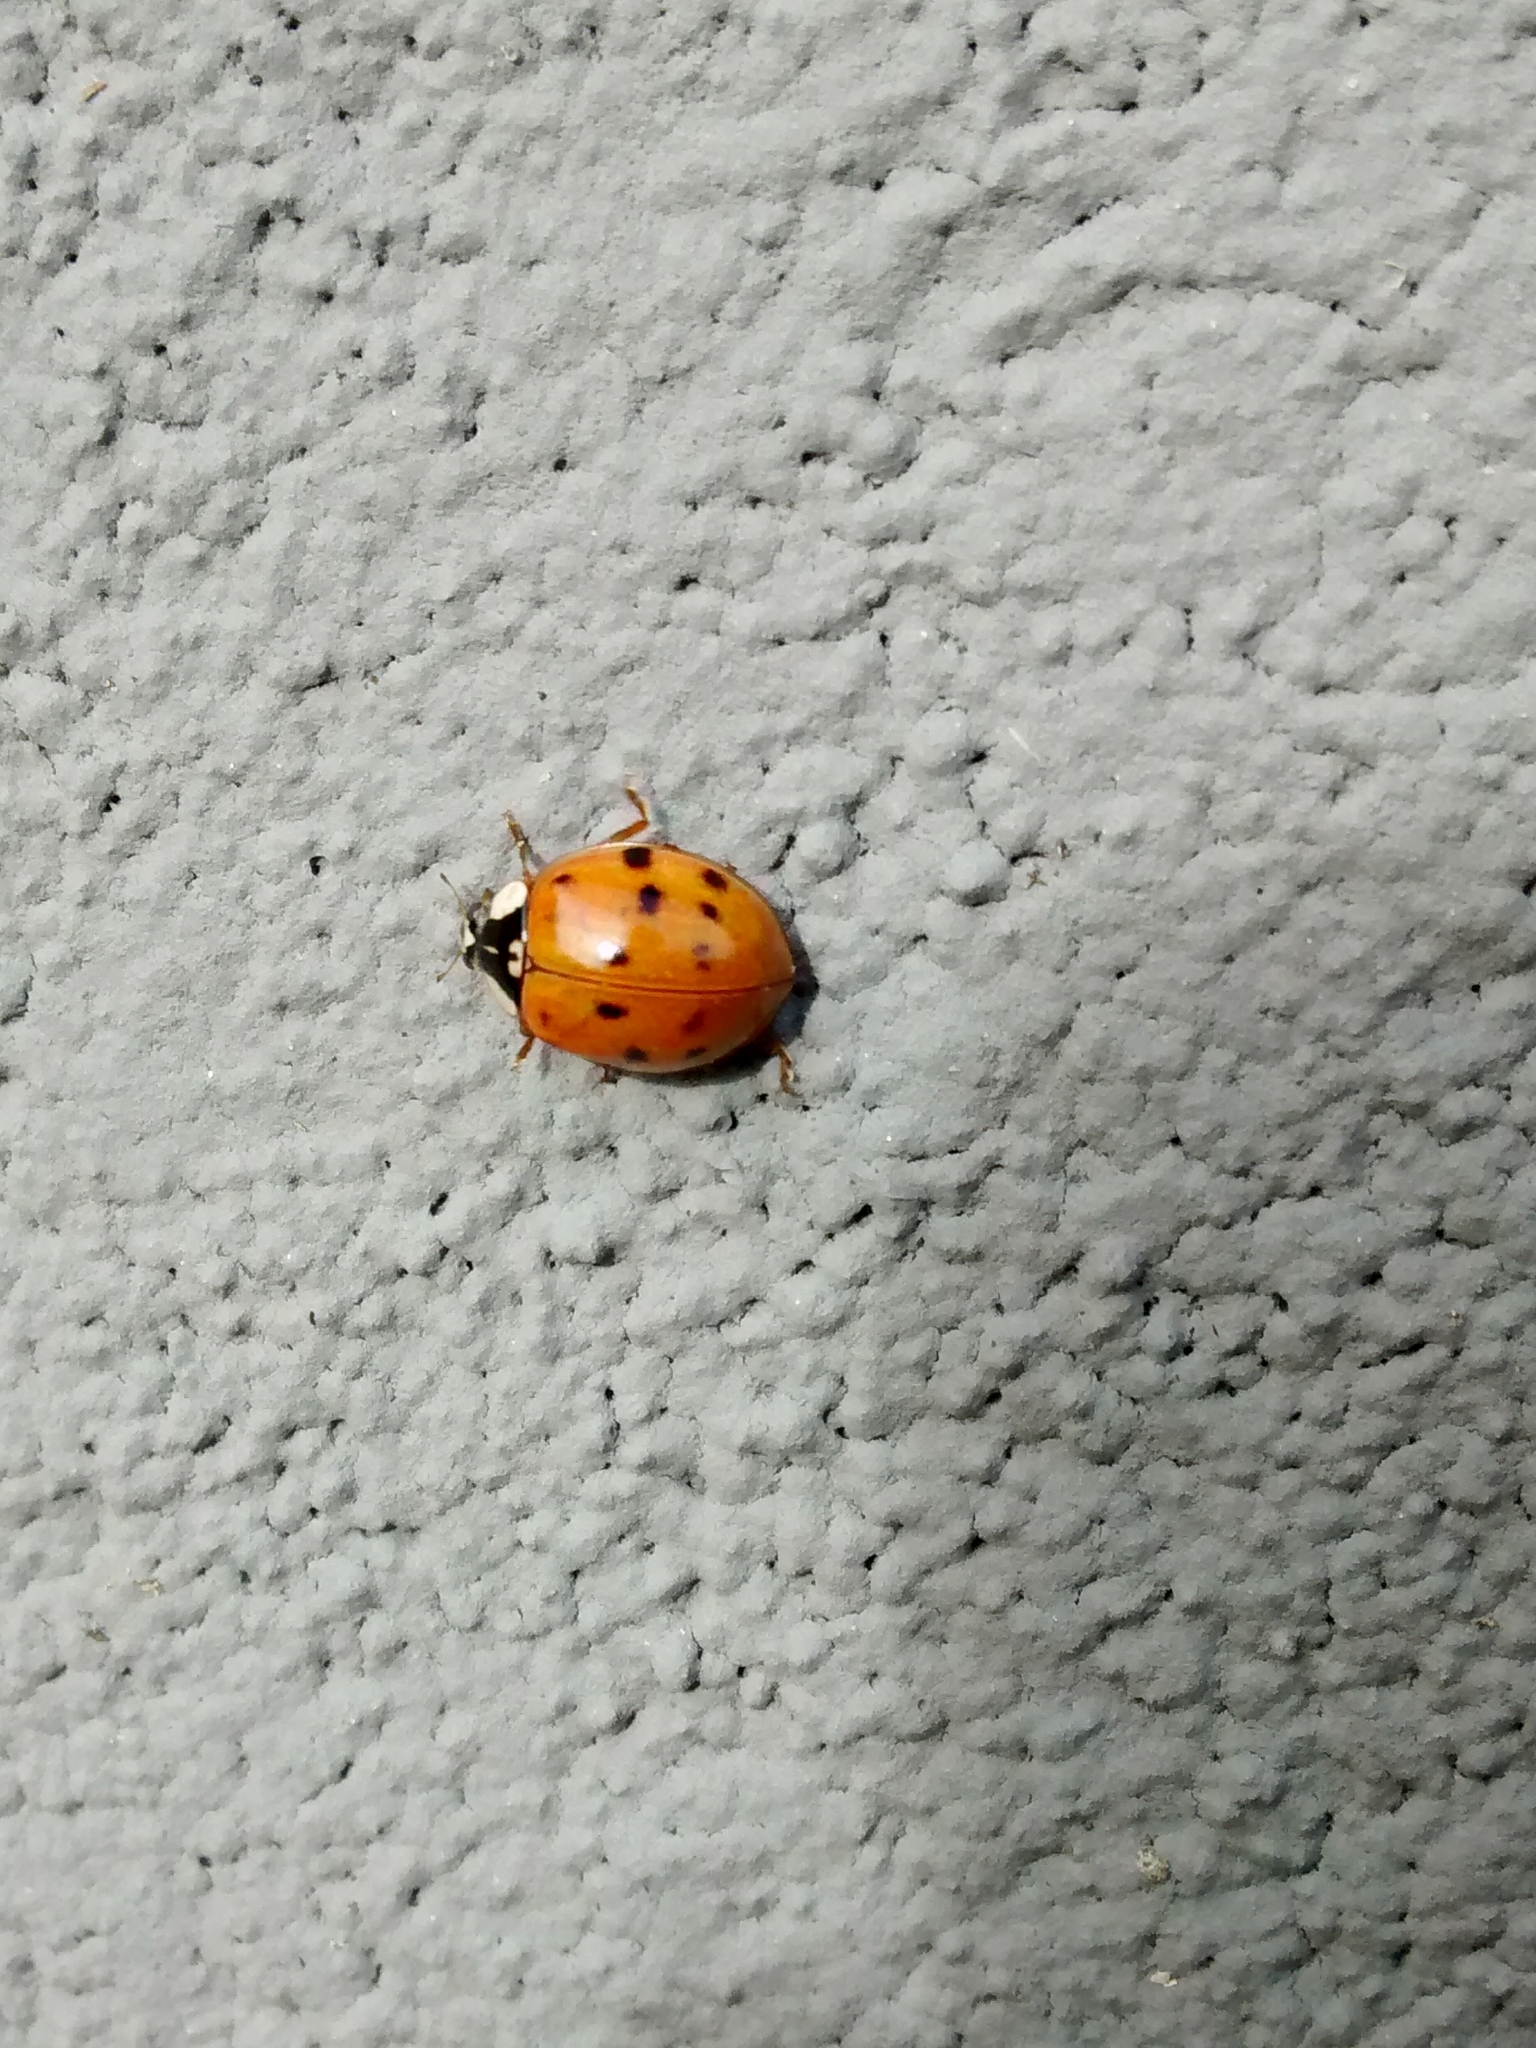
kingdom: Animalia
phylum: Arthropoda
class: Insecta
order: Coleoptera
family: Coccinellidae
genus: Harmonia
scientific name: Harmonia axyridis
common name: Harlequin ladybird
